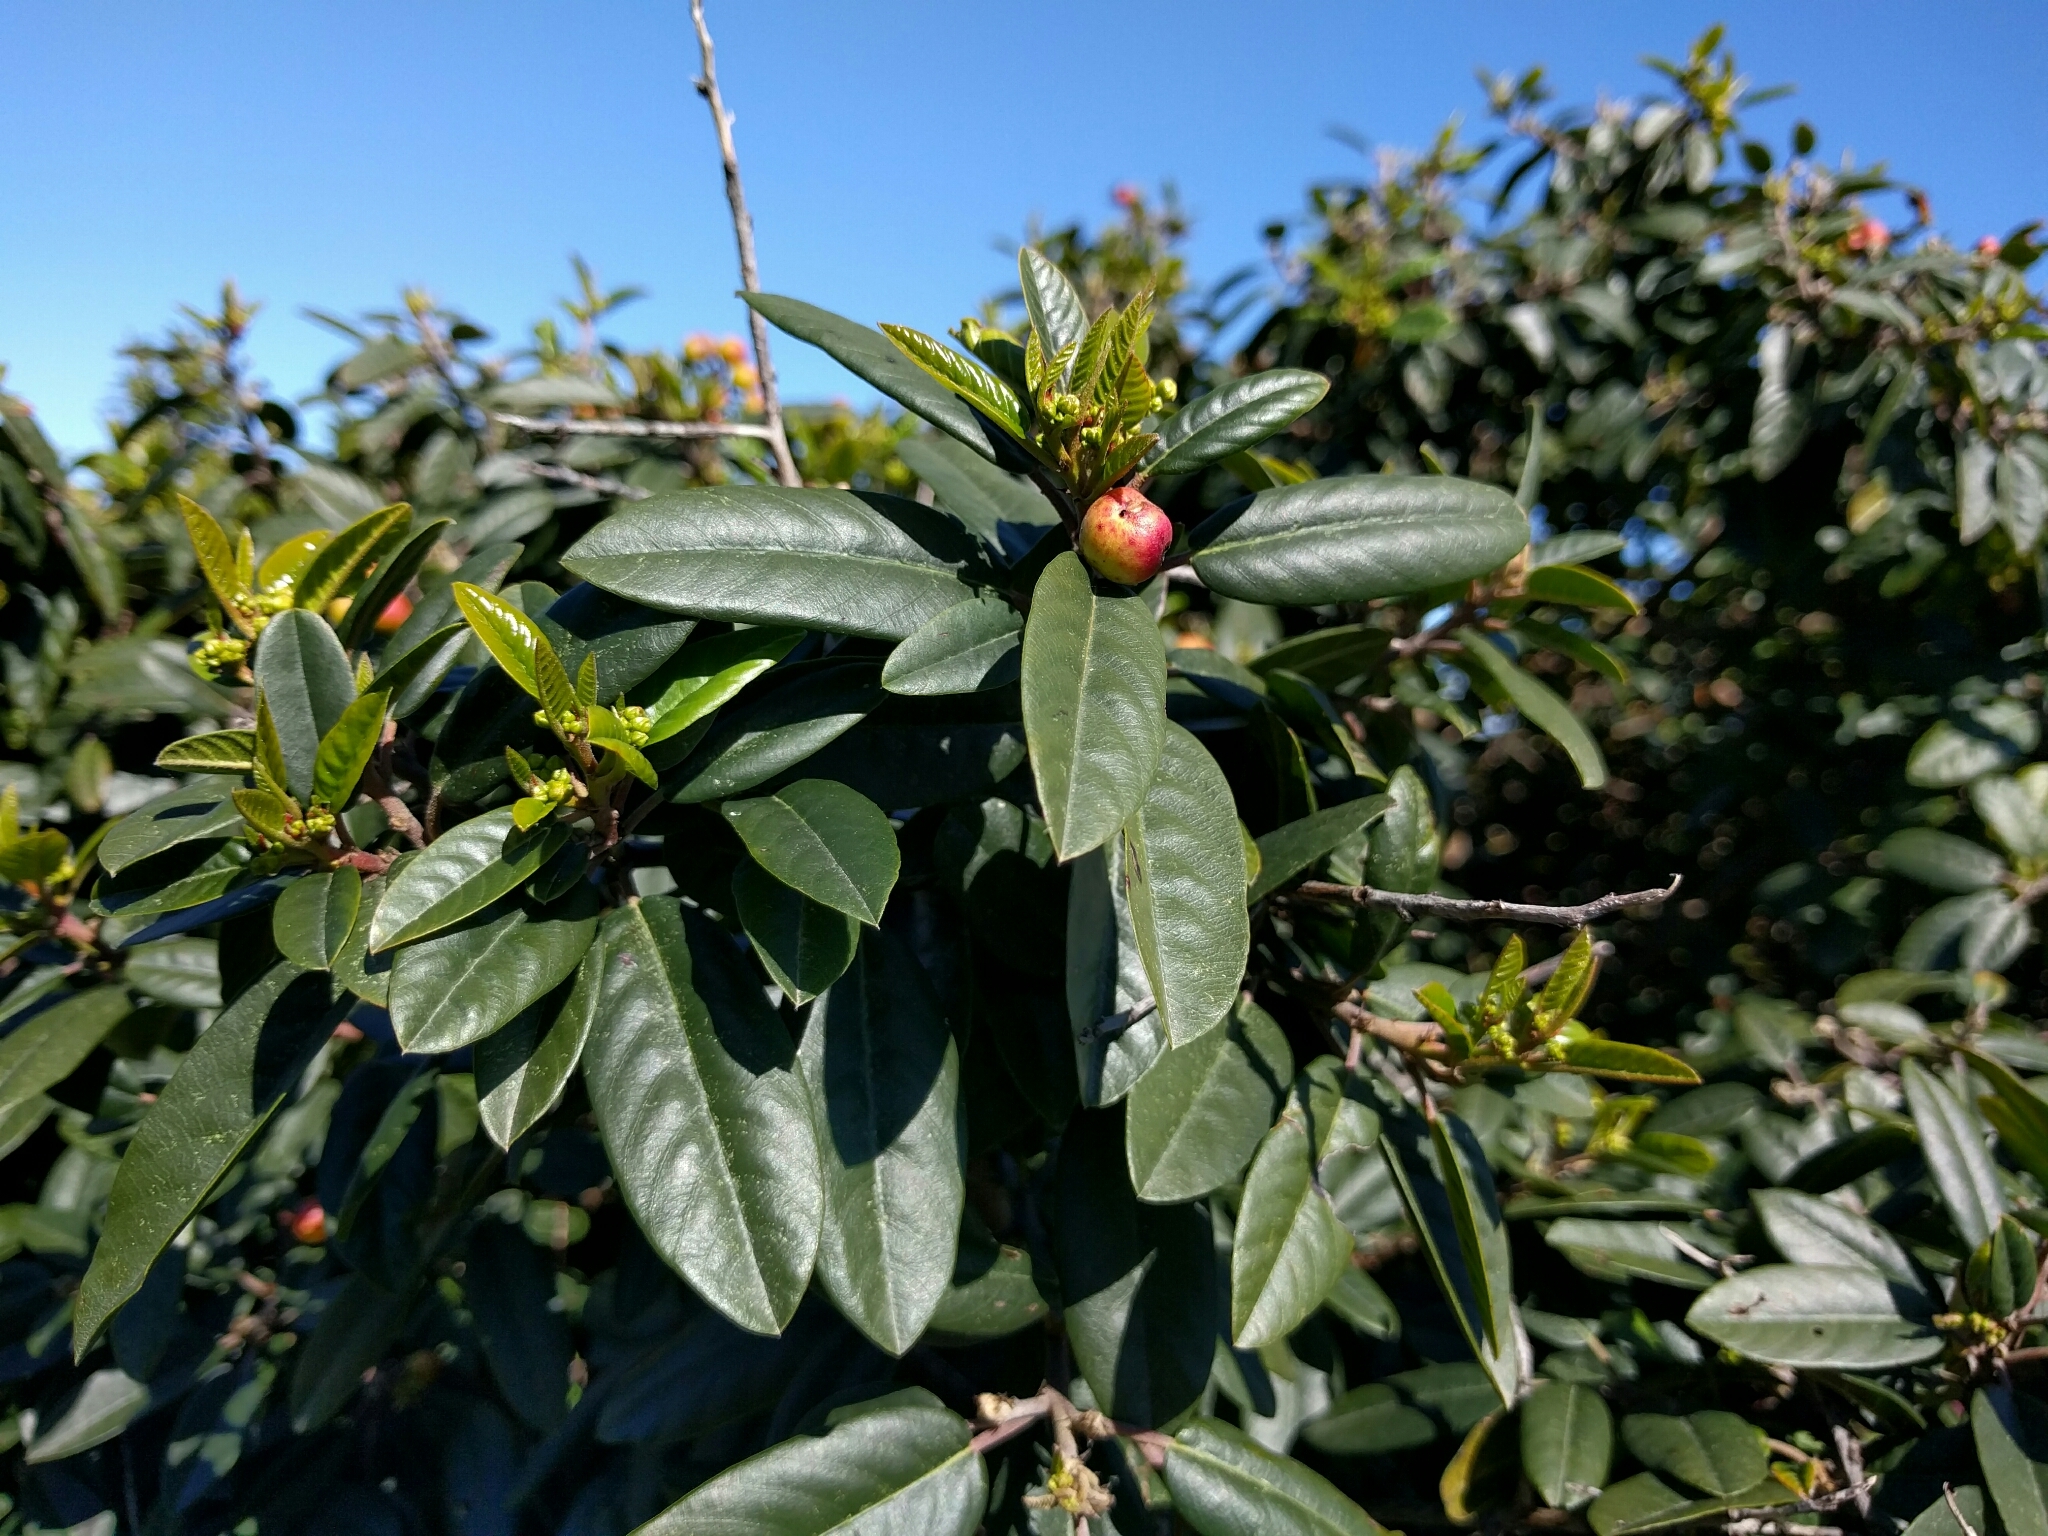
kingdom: Plantae
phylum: Tracheophyta
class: Magnoliopsida
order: Rosales
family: Rhamnaceae
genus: Frangula
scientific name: Frangula californica
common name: California buckthorn
